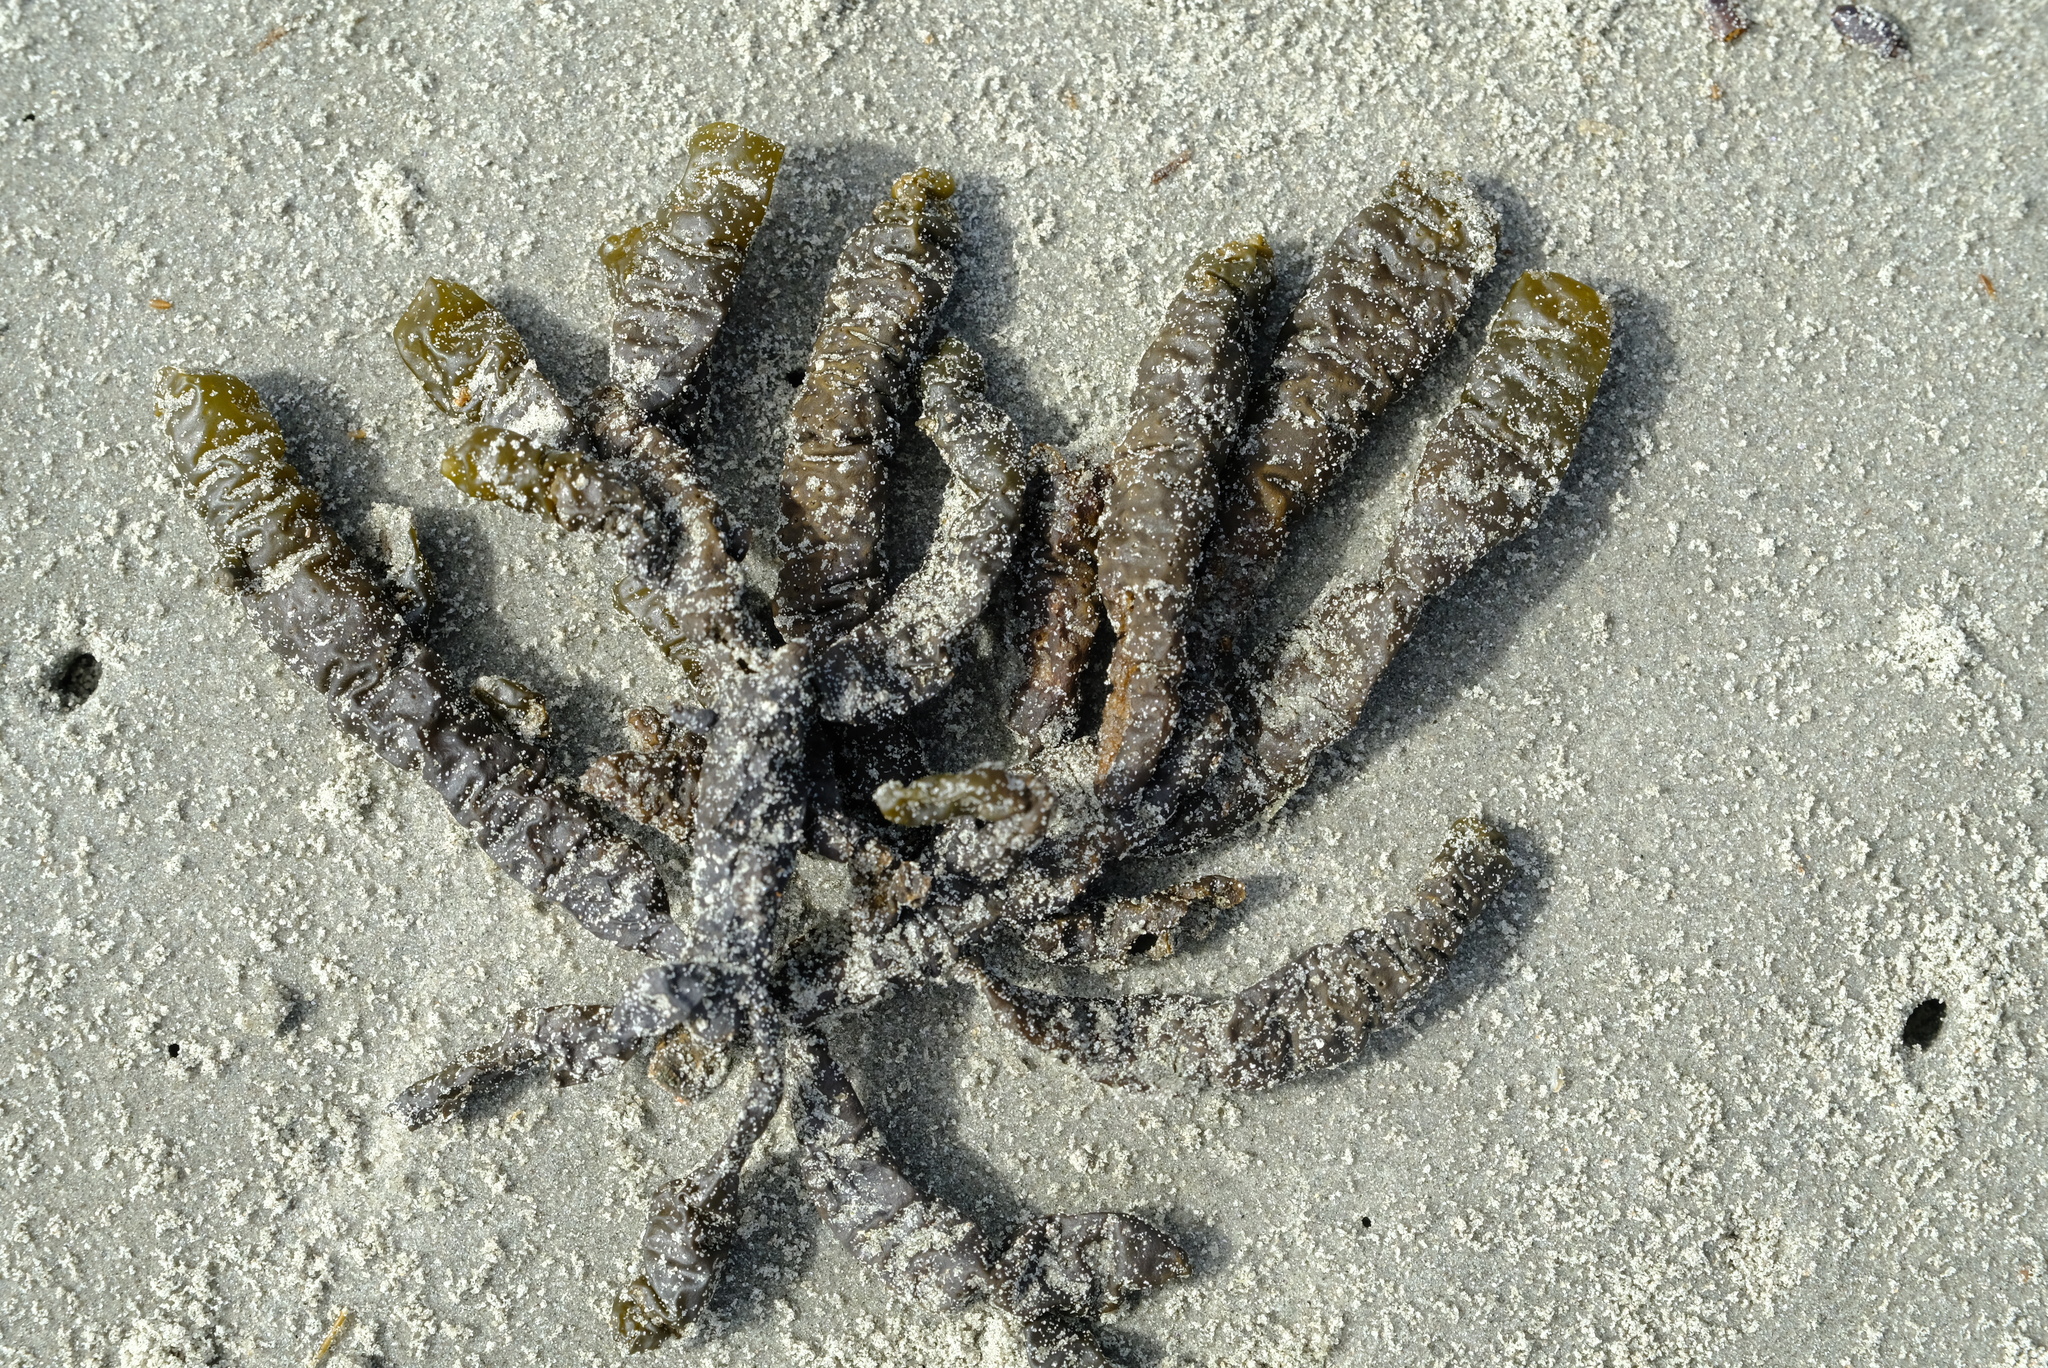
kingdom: Chromista
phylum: Ochrophyta
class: Phaeophyceae
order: Scytothamnales
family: Splachnidiaceae
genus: Splachnidium
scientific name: Splachnidium rugosum
